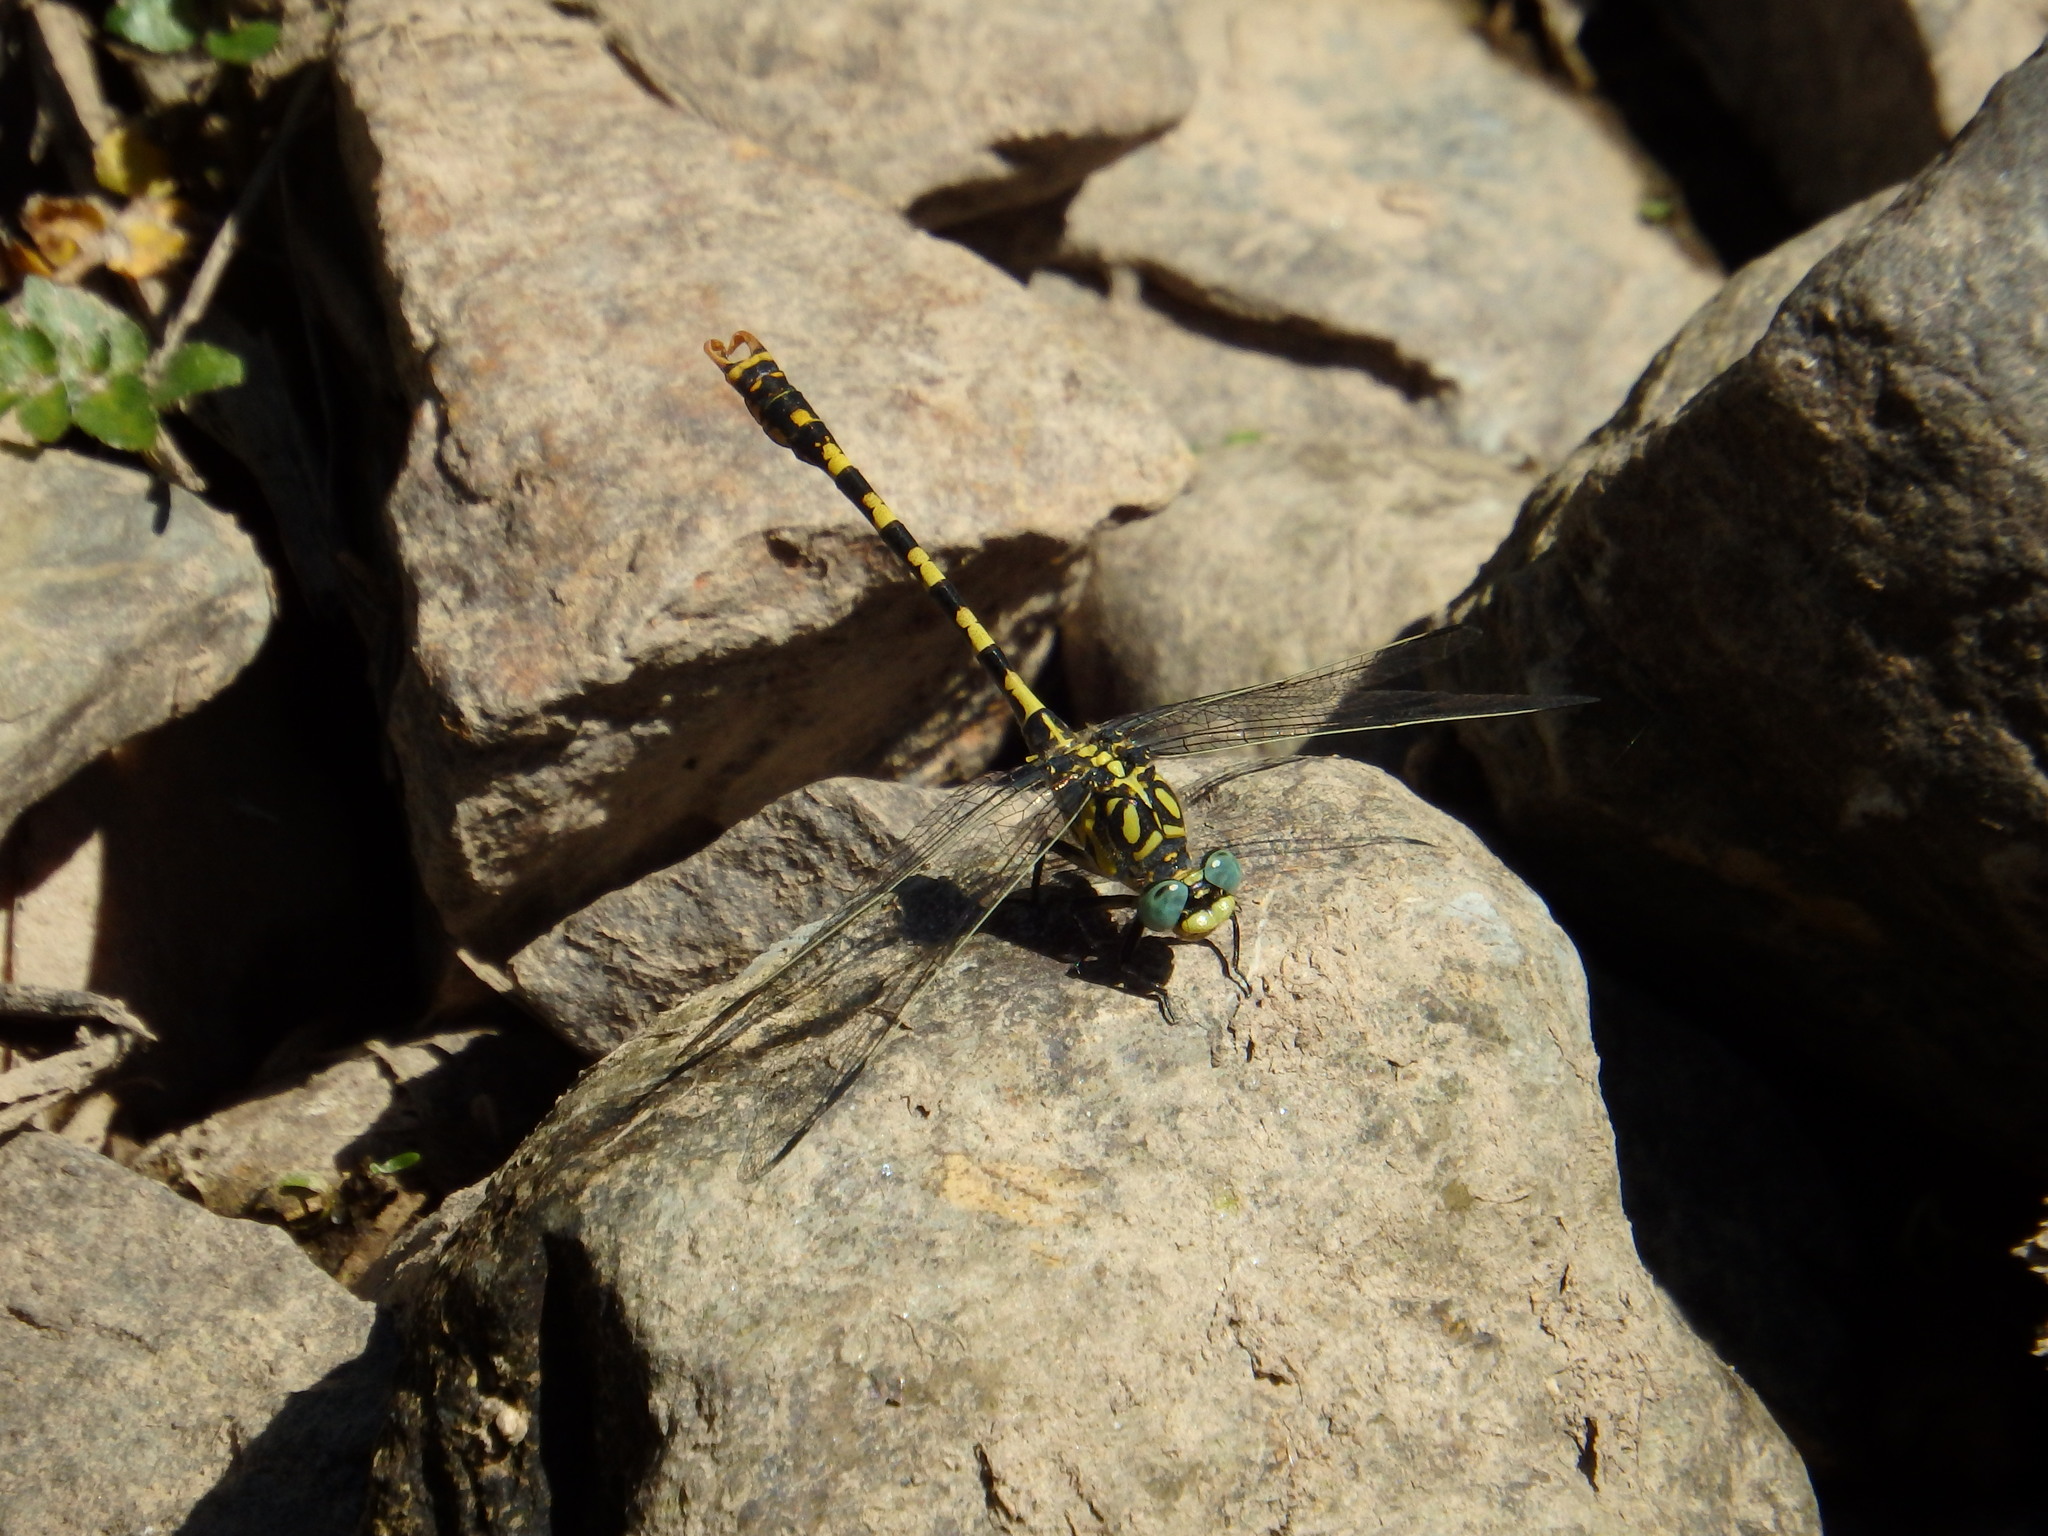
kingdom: Animalia
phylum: Arthropoda
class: Insecta
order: Odonata
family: Gomphidae
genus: Onychogomphus
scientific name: Onychogomphus forcipatus
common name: Small pincertail
